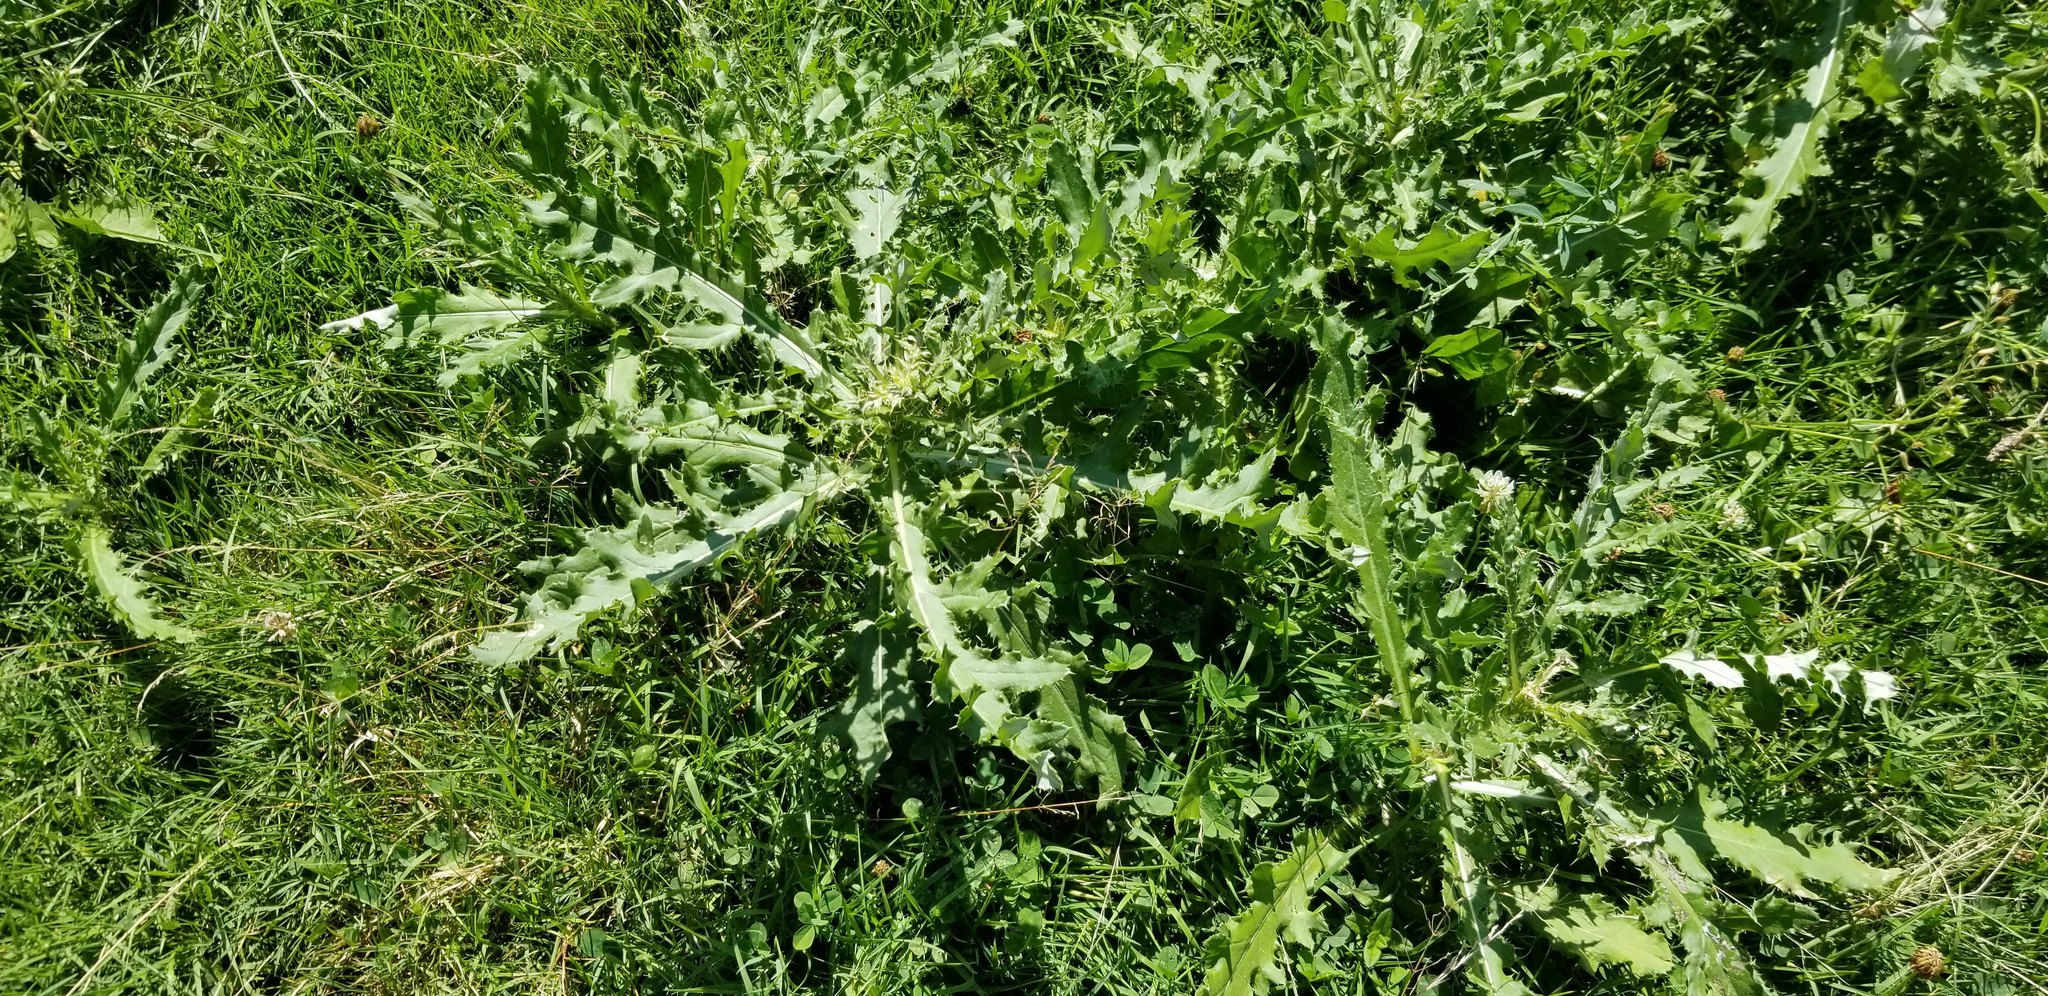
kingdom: Plantae
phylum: Tracheophyta
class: Magnoliopsida
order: Asterales
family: Asteraceae
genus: Cirsium
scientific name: Cirsium arvense
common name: Creeping thistle
